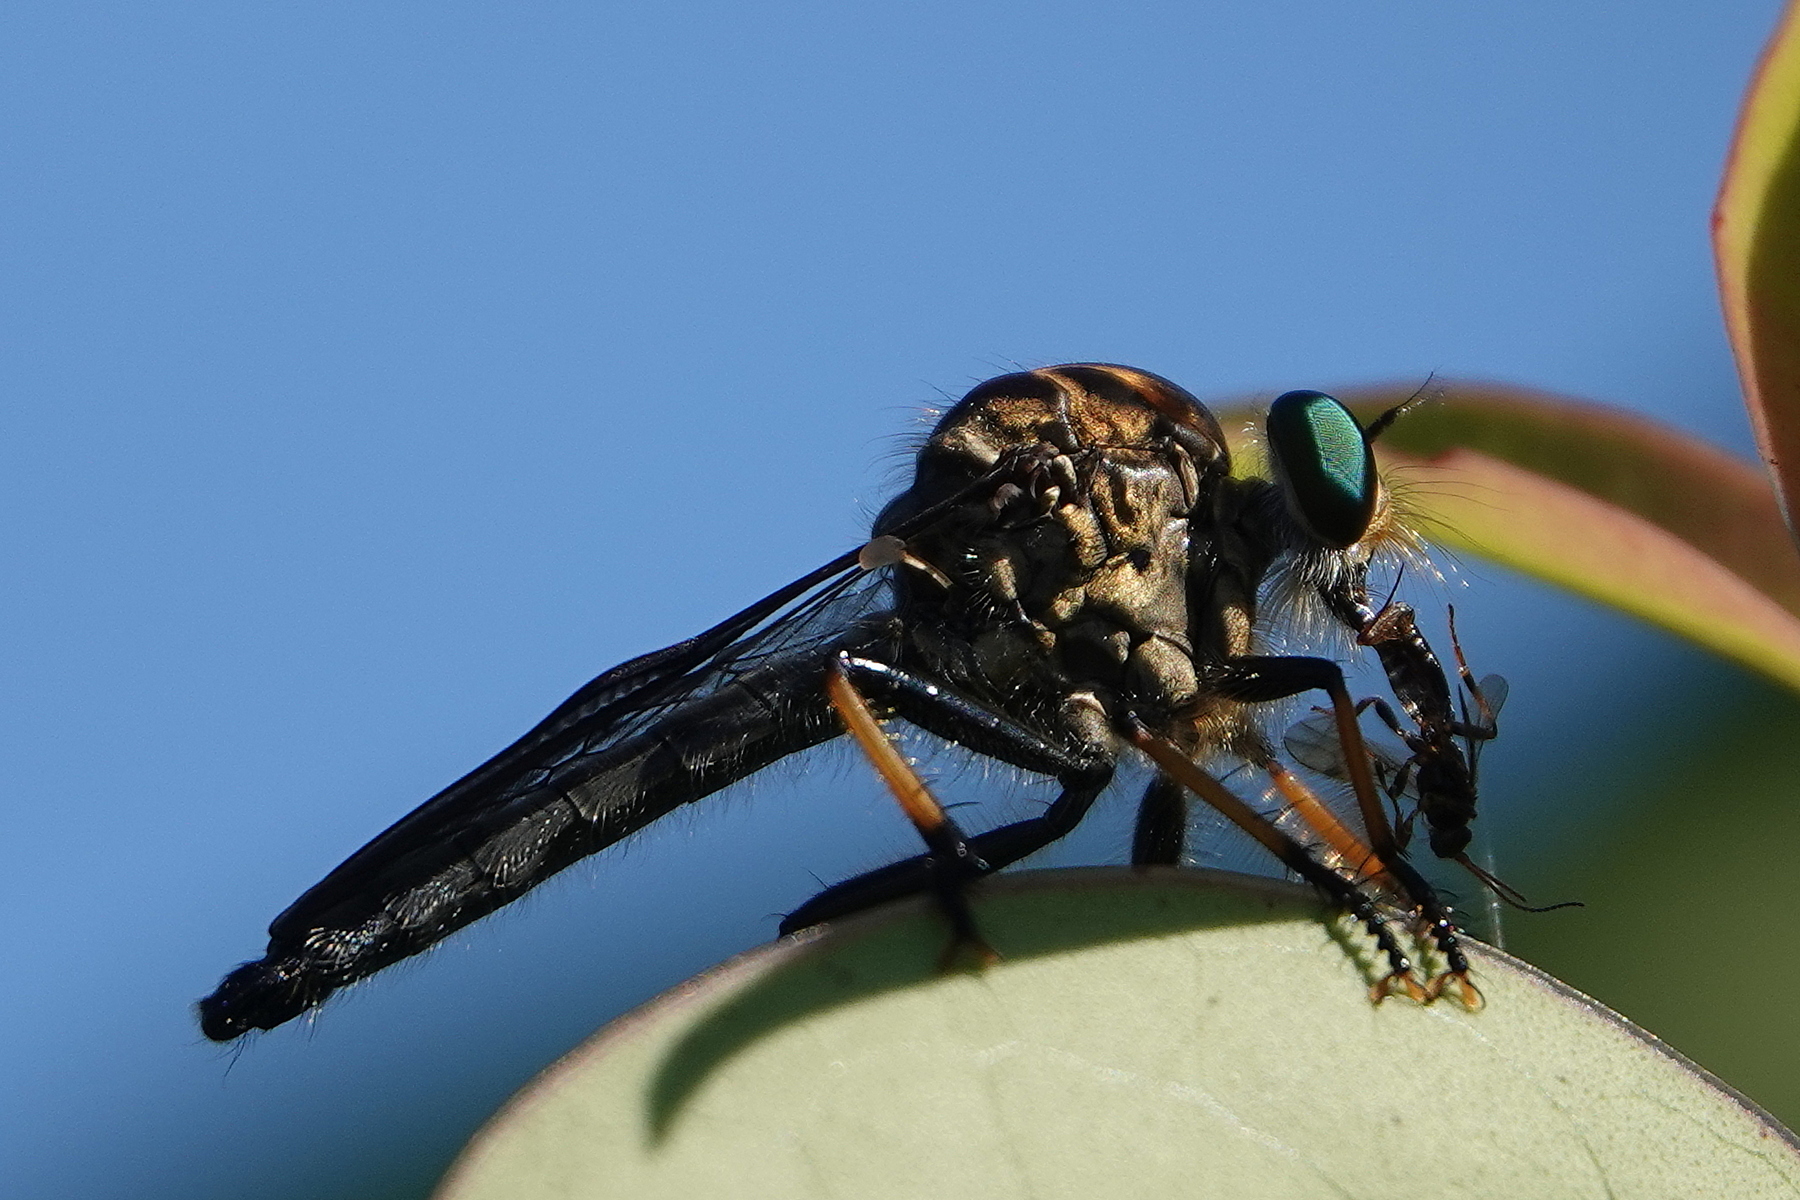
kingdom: Animalia
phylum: Arthropoda
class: Insecta
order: Diptera
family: Asilidae
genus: Ommatius
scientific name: Ommatius coeraebus
